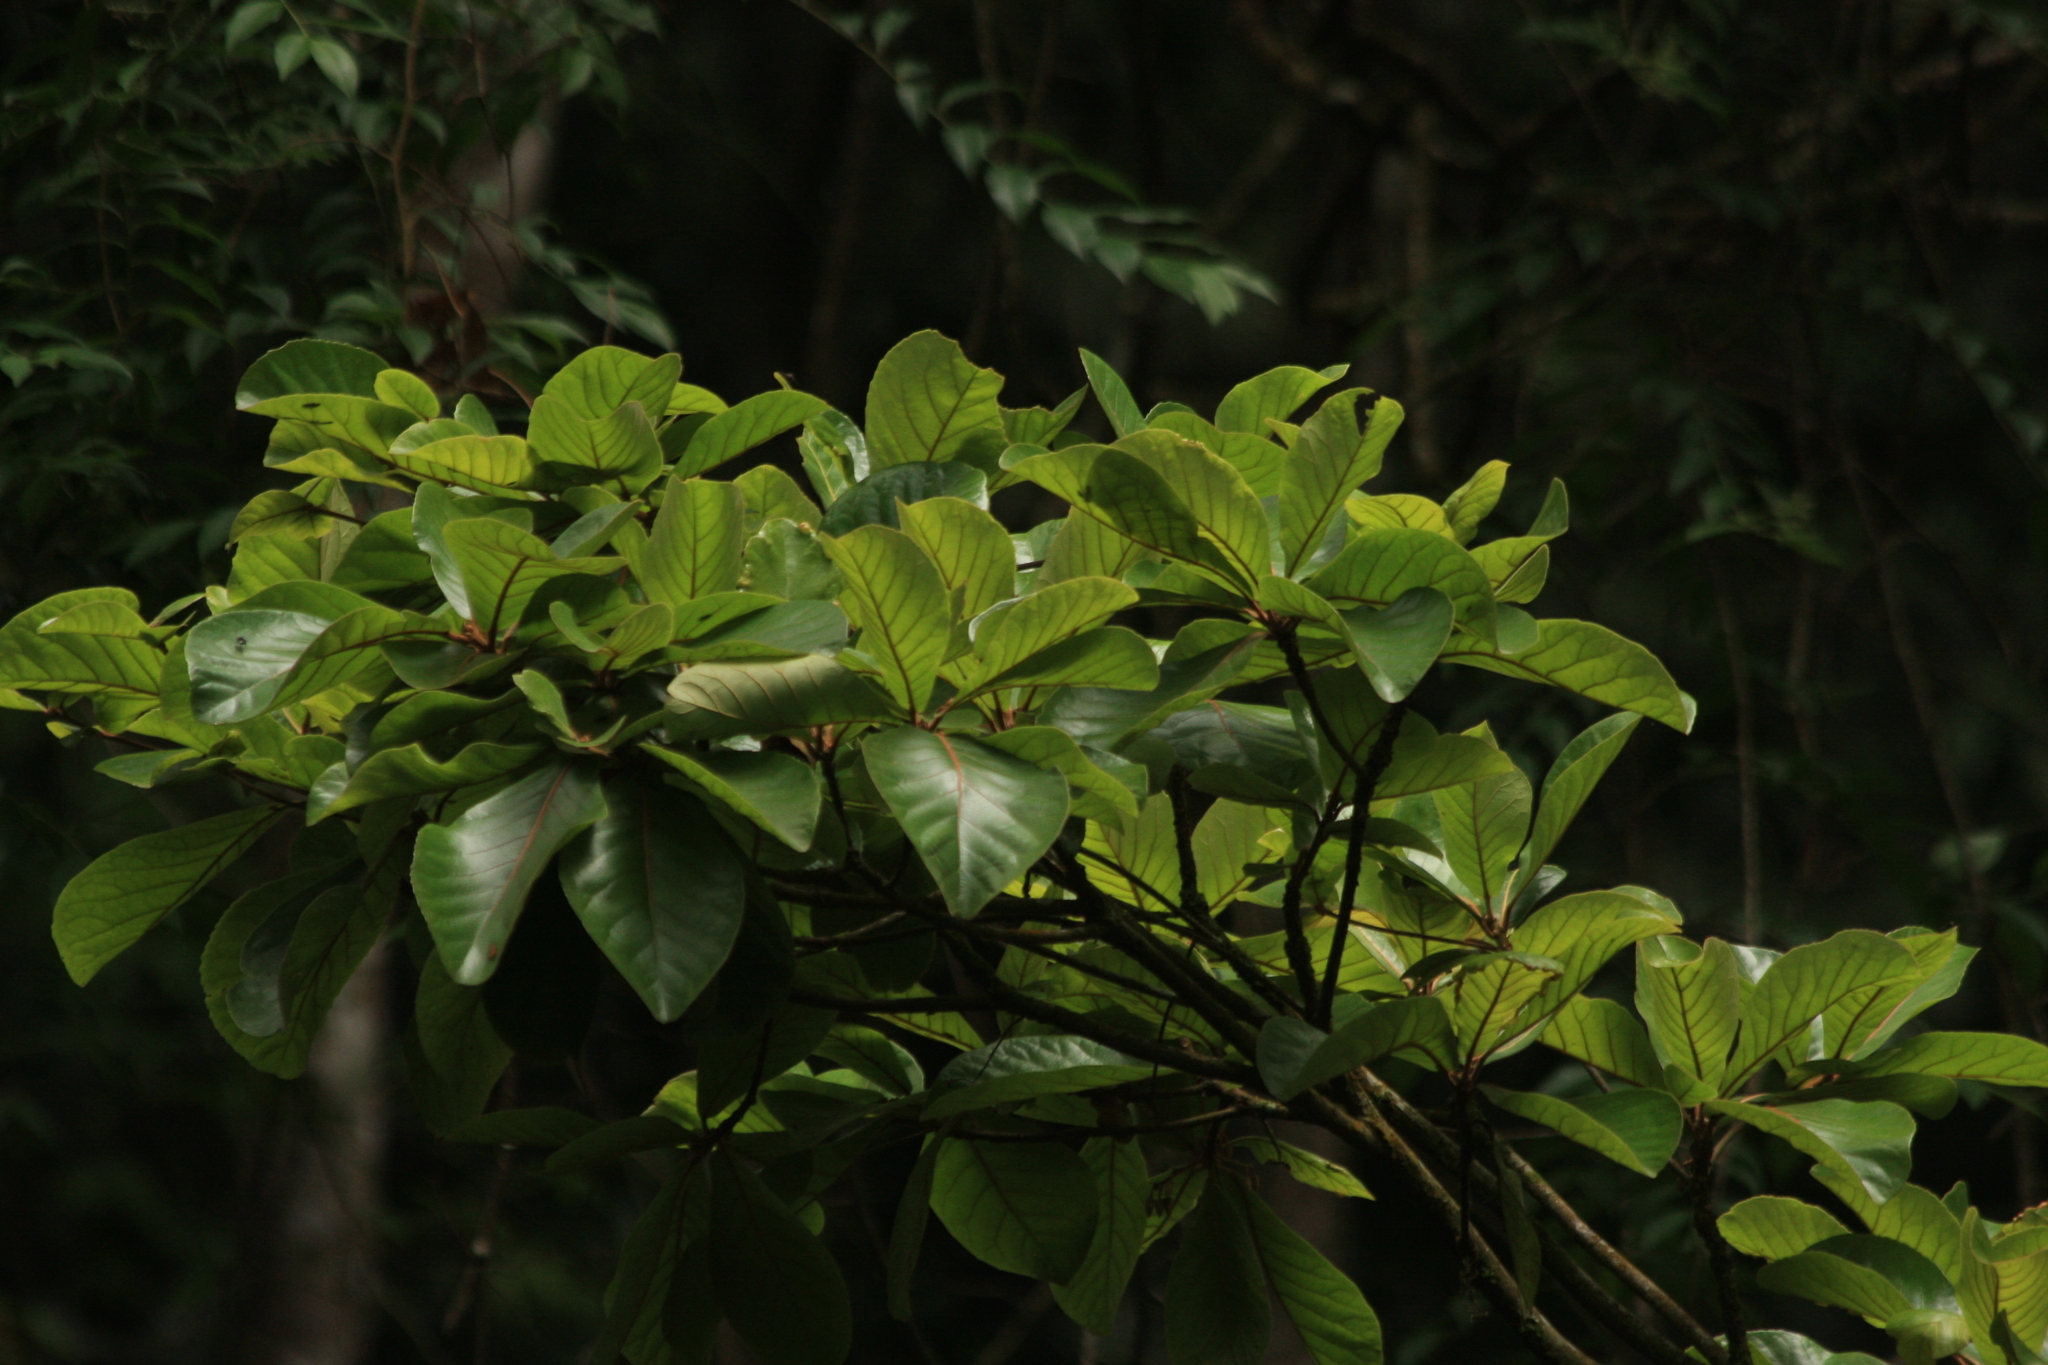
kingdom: Plantae
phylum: Tracheophyta
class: Magnoliopsida
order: Oxalidales
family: Elaeocarpaceae
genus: Elaeocarpus
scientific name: Elaeocarpus tuberculatus
